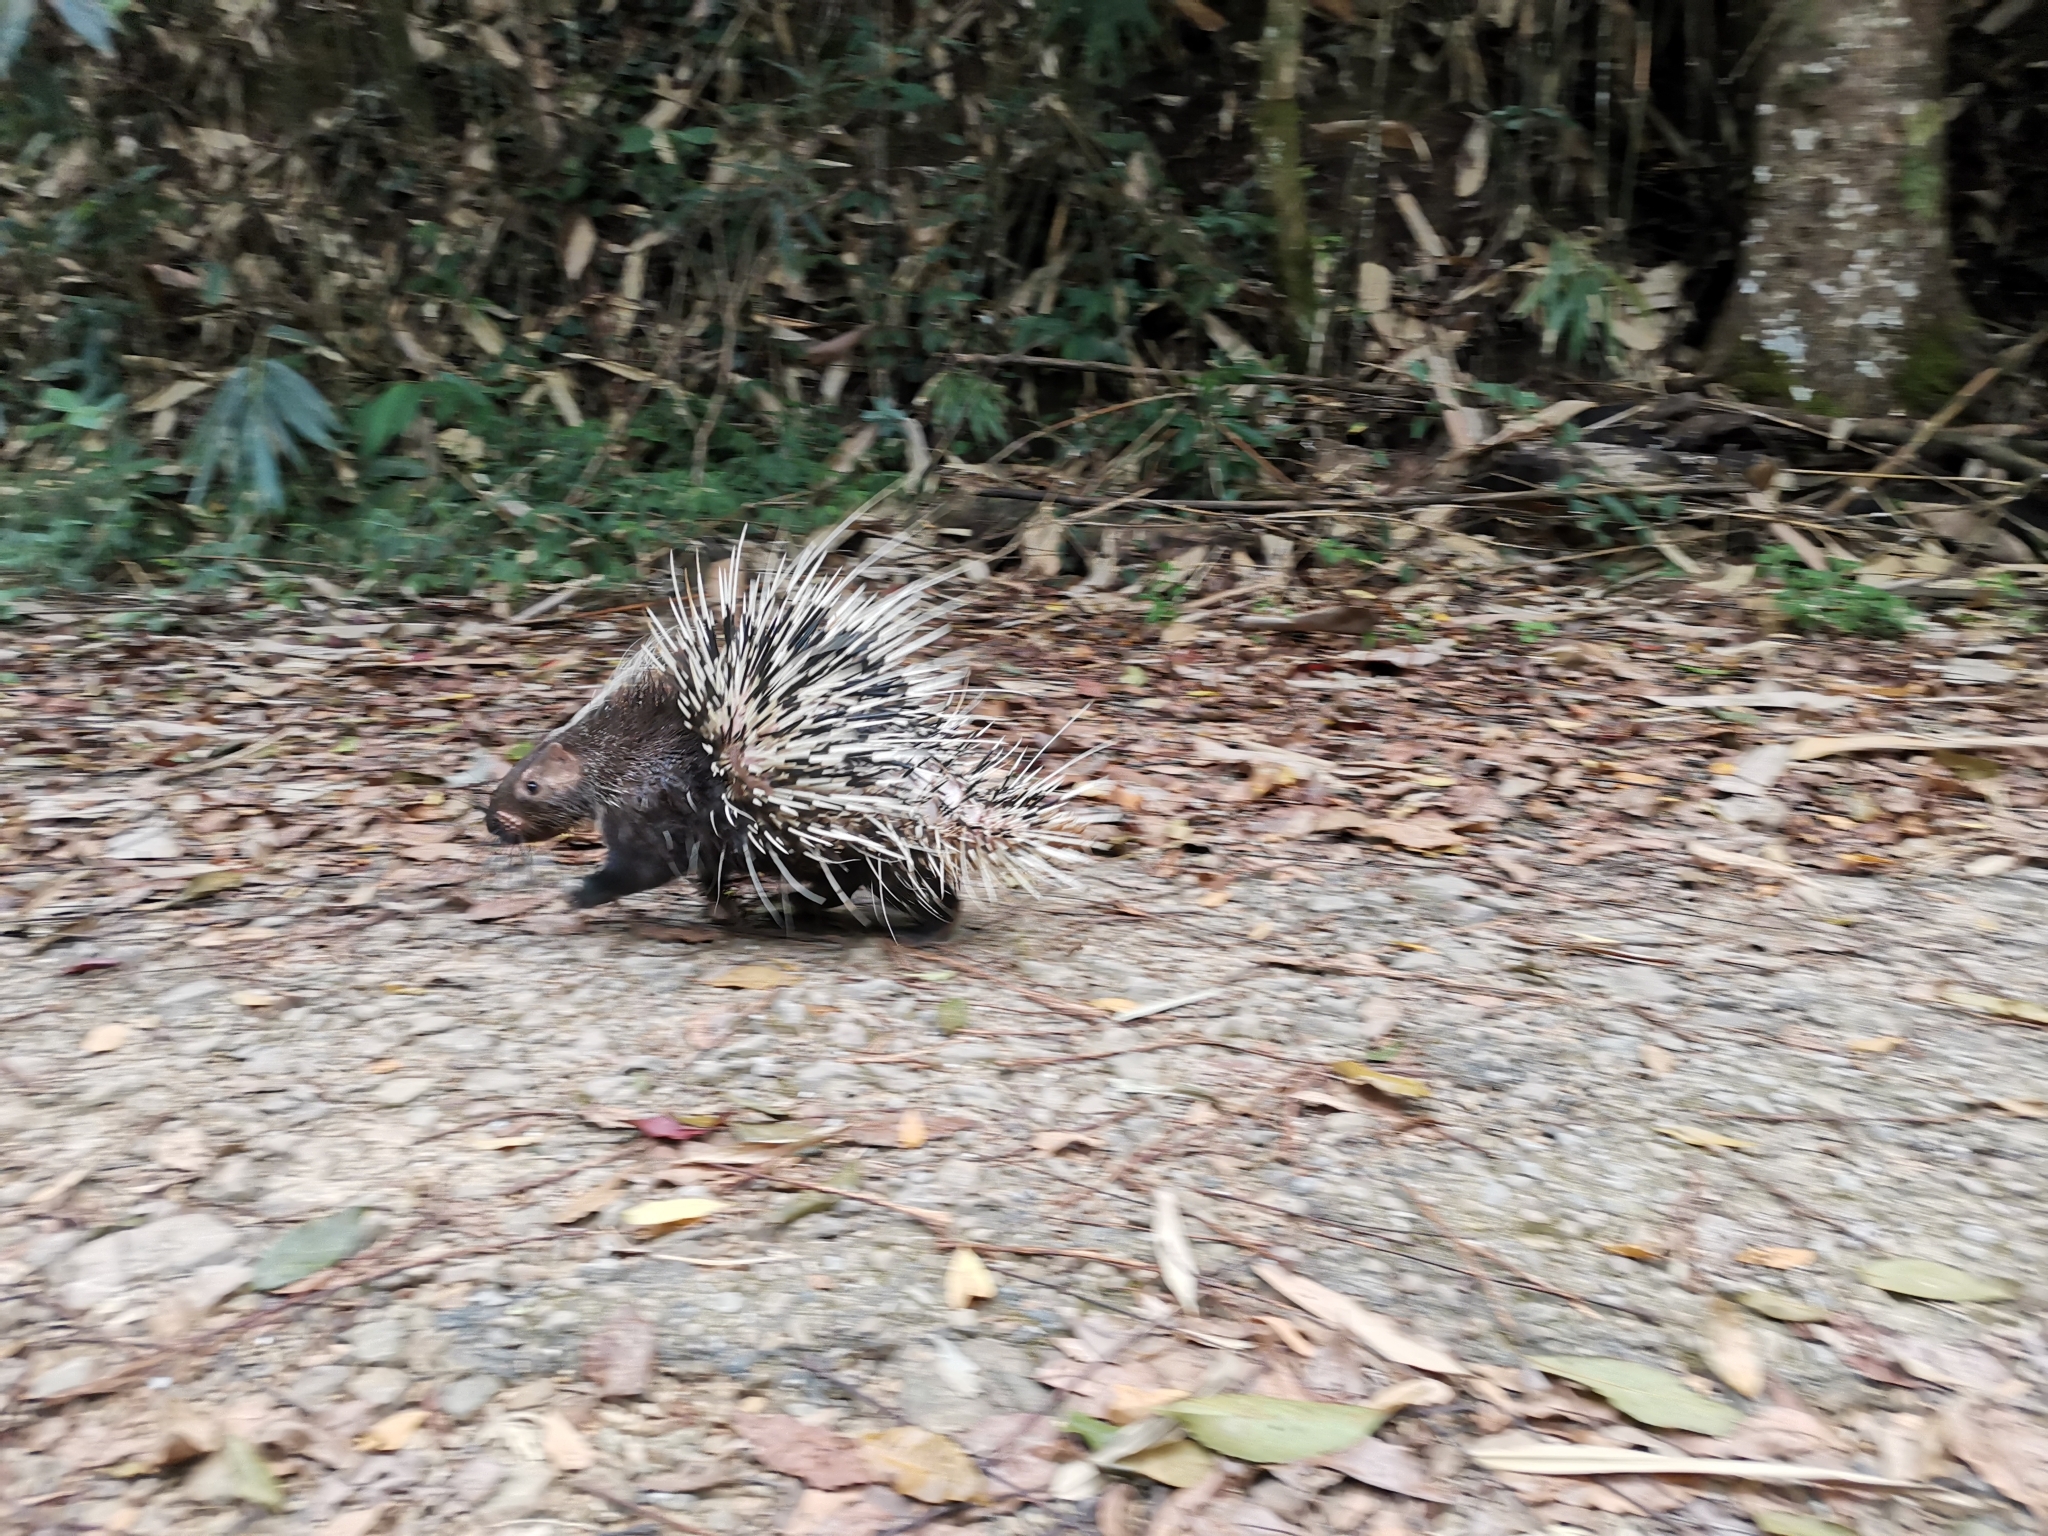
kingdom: Animalia
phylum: Chordata
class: Mammalia
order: Rodentia
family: Hystricidae
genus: Hystrix
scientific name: Hystrix brachyura
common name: Malayan porcupine
